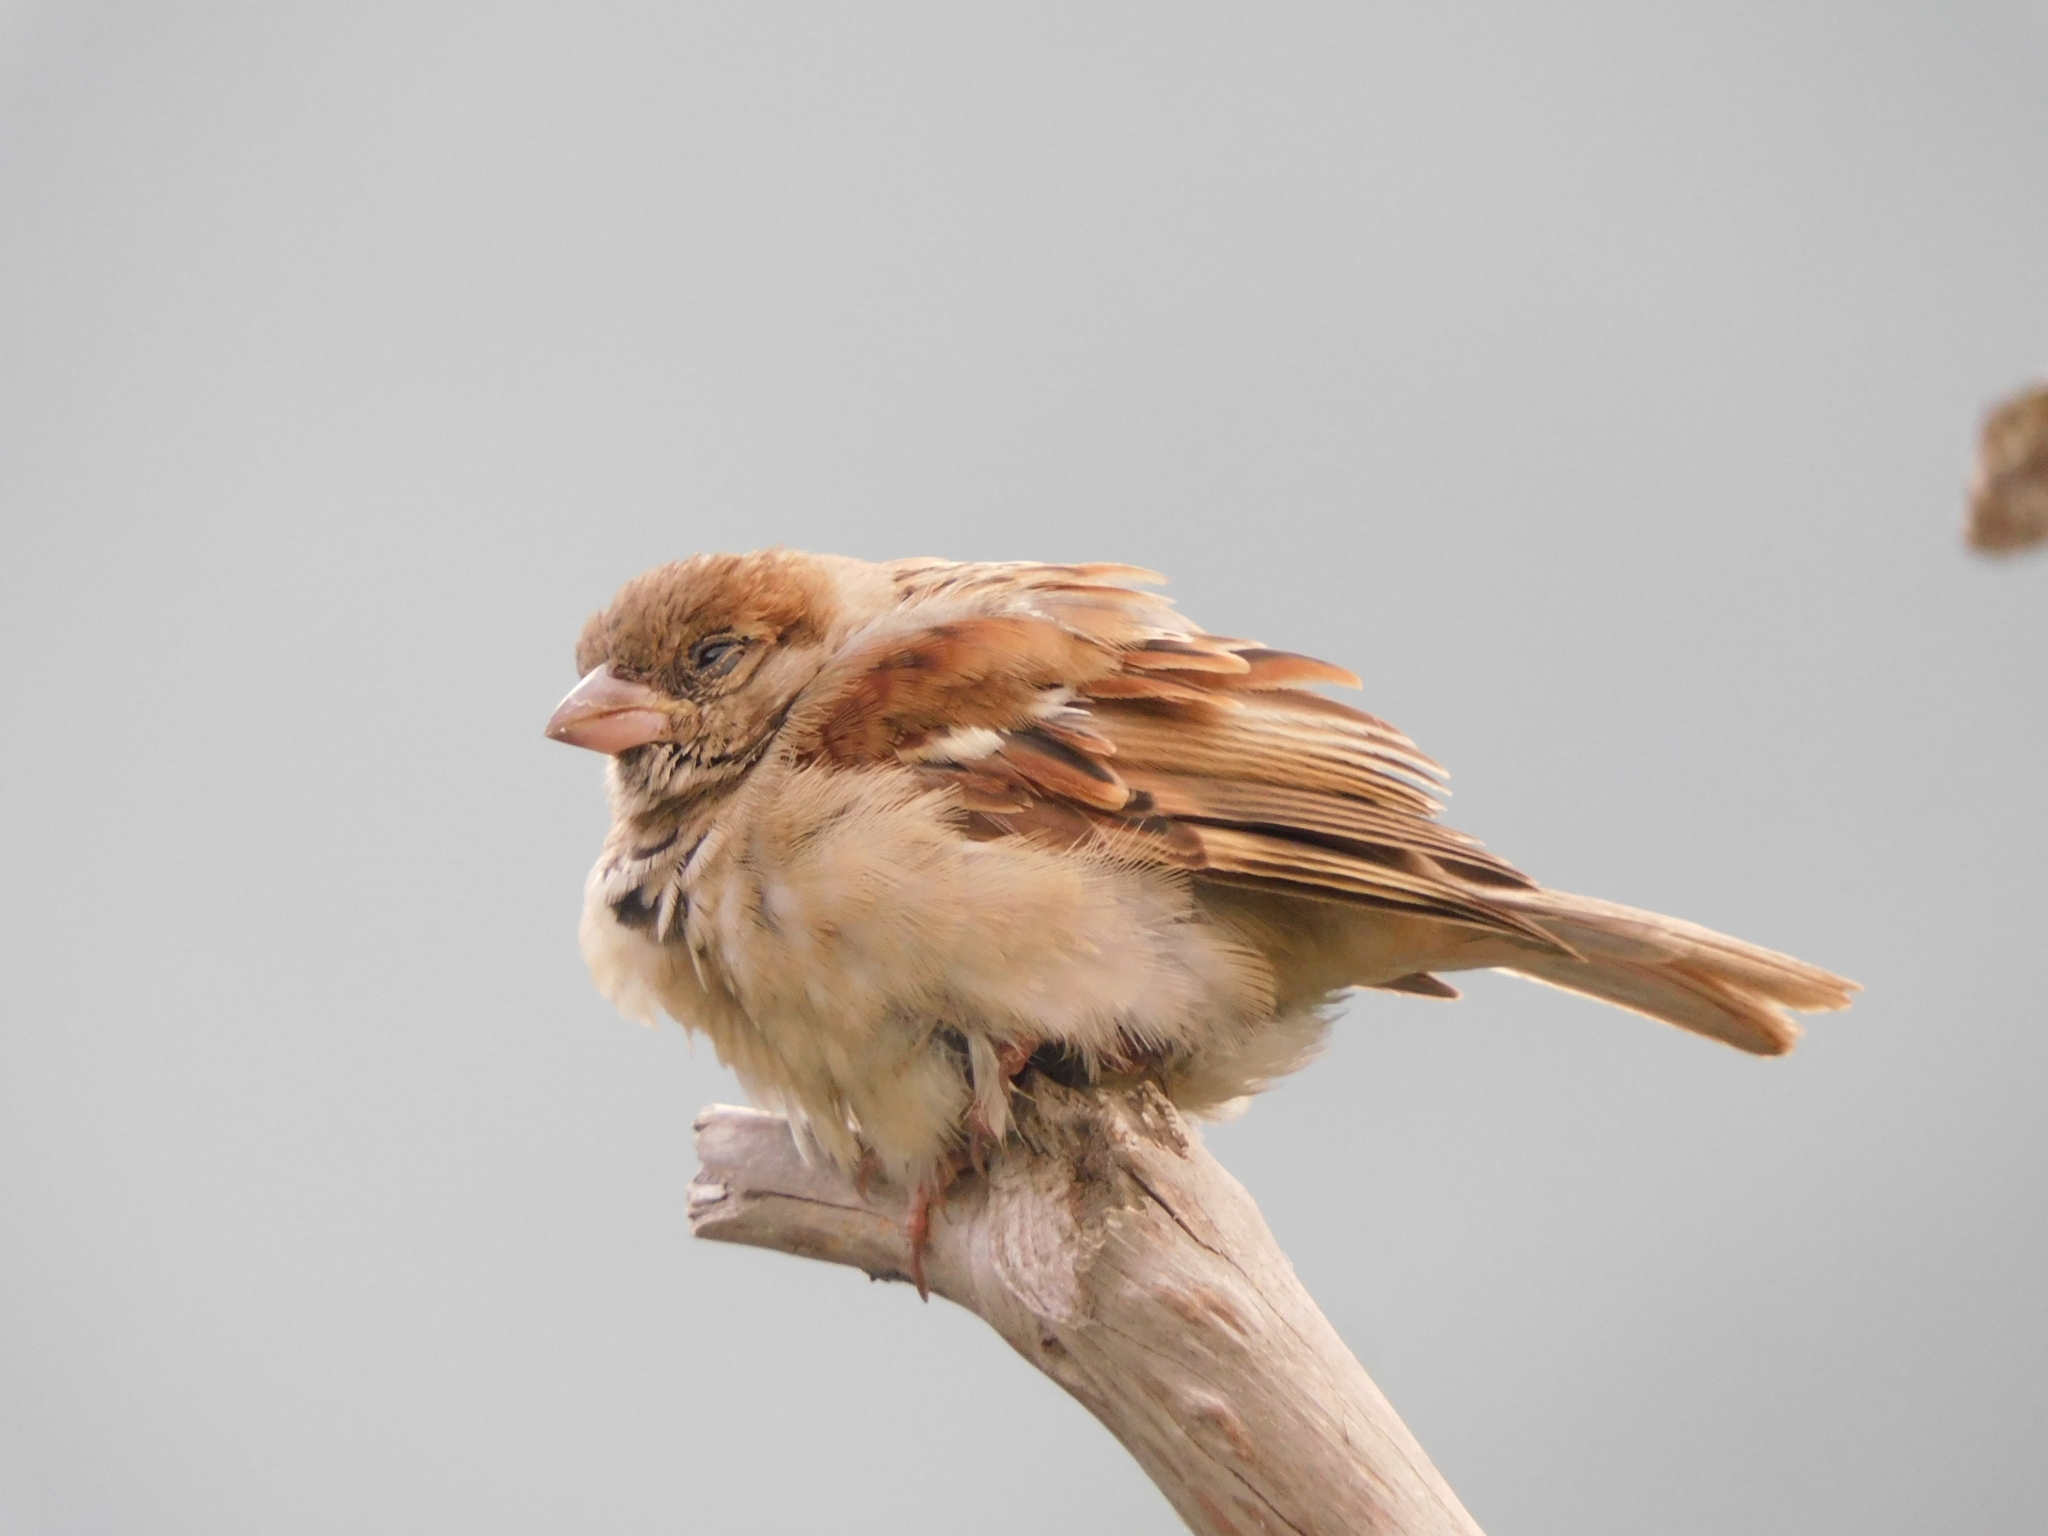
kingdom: Animalia
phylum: Chordata
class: Aves
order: Passeriformes
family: Passeridae
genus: Passer
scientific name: Passer domesticus
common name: House sparrow
